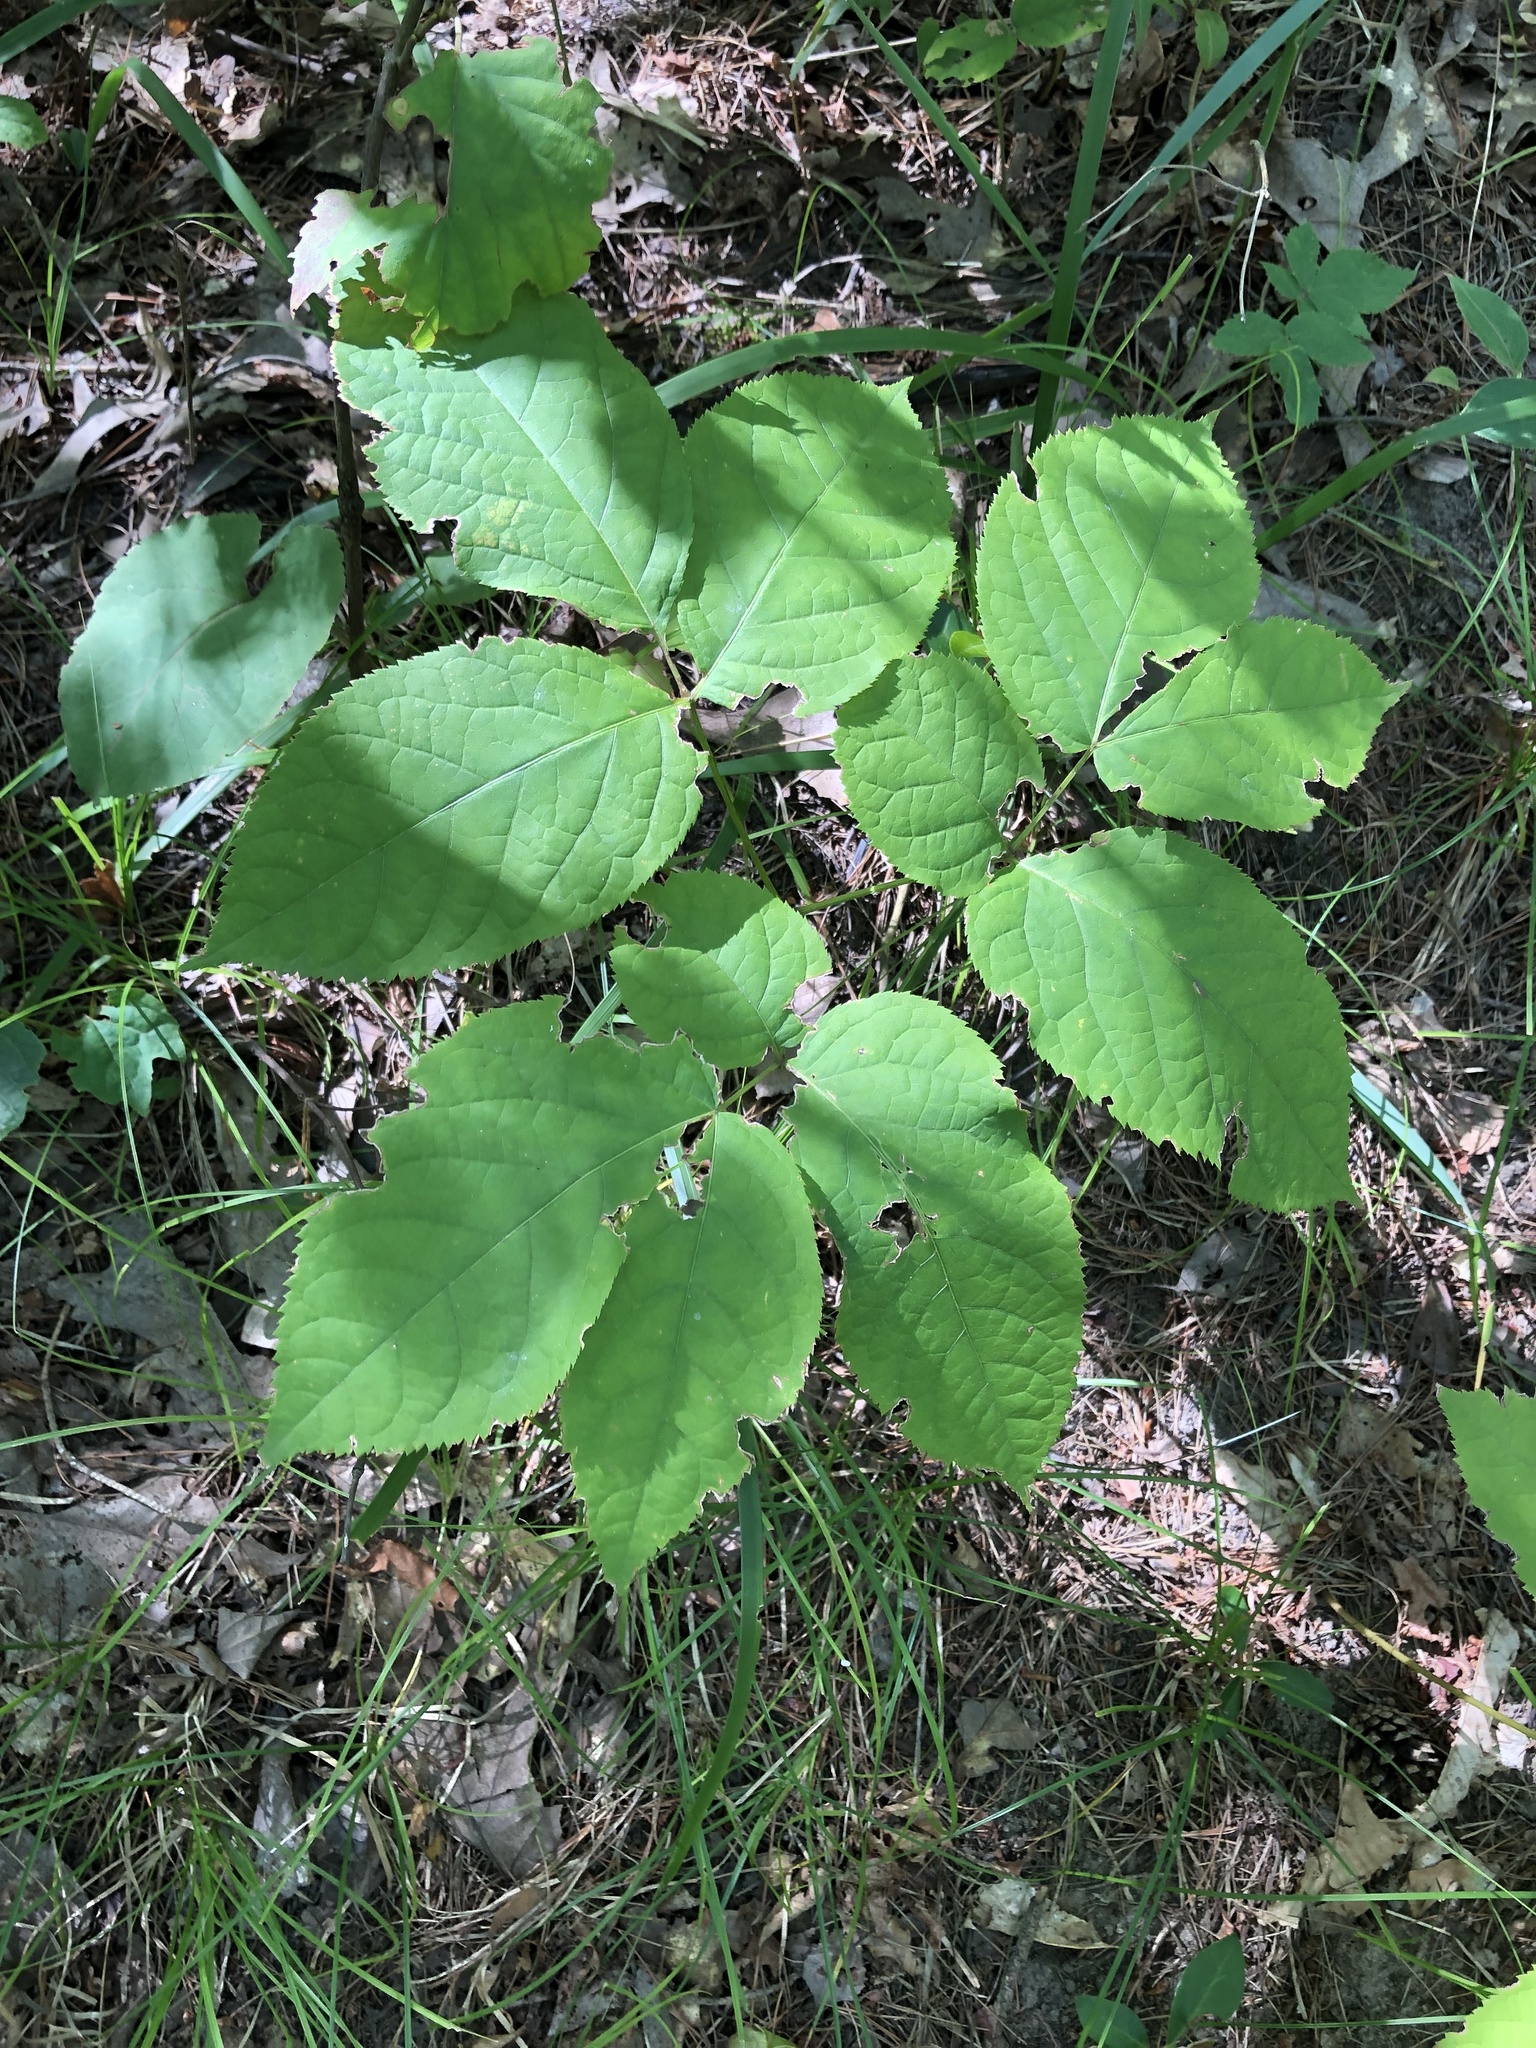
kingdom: Plantae
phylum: Tracheophyta
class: Magnoliopsida
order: Apiales
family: Araliaceae
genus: Aralia
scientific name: Aralia nudicaulis
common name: Wild sarsaparilla
